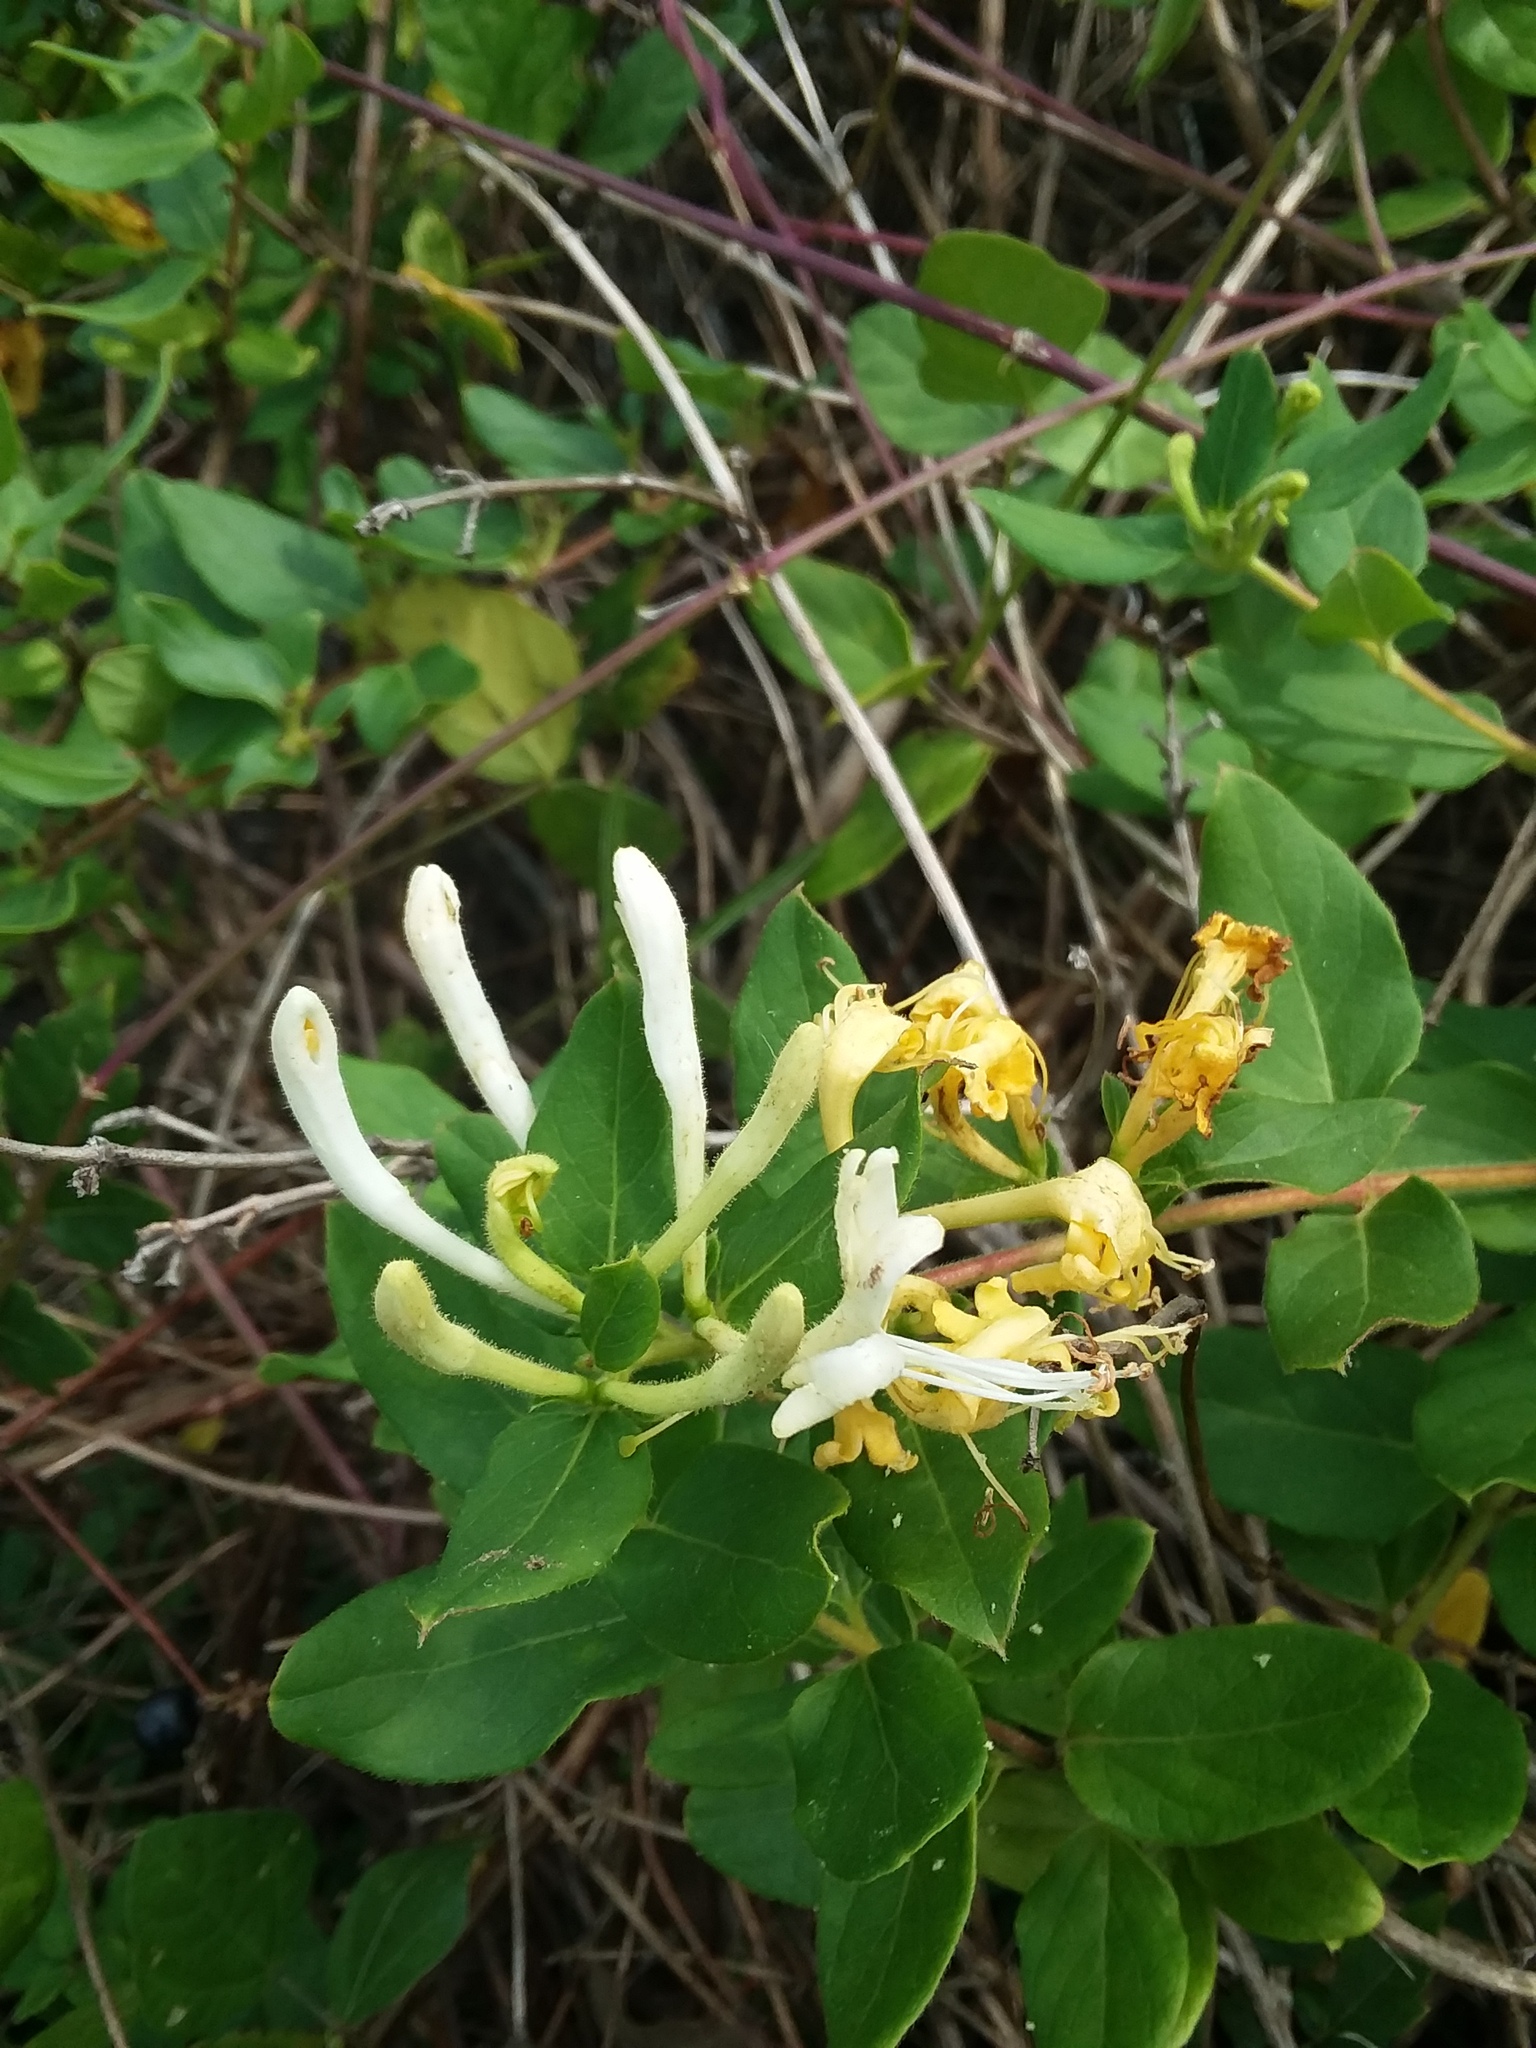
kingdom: Plantae
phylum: Tracheophyta
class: Magnoliopsida
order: Dipsacales
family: Caprifoliaceae
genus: Lonicera
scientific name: Lonicera japonica
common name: Japanese honeysuckle
